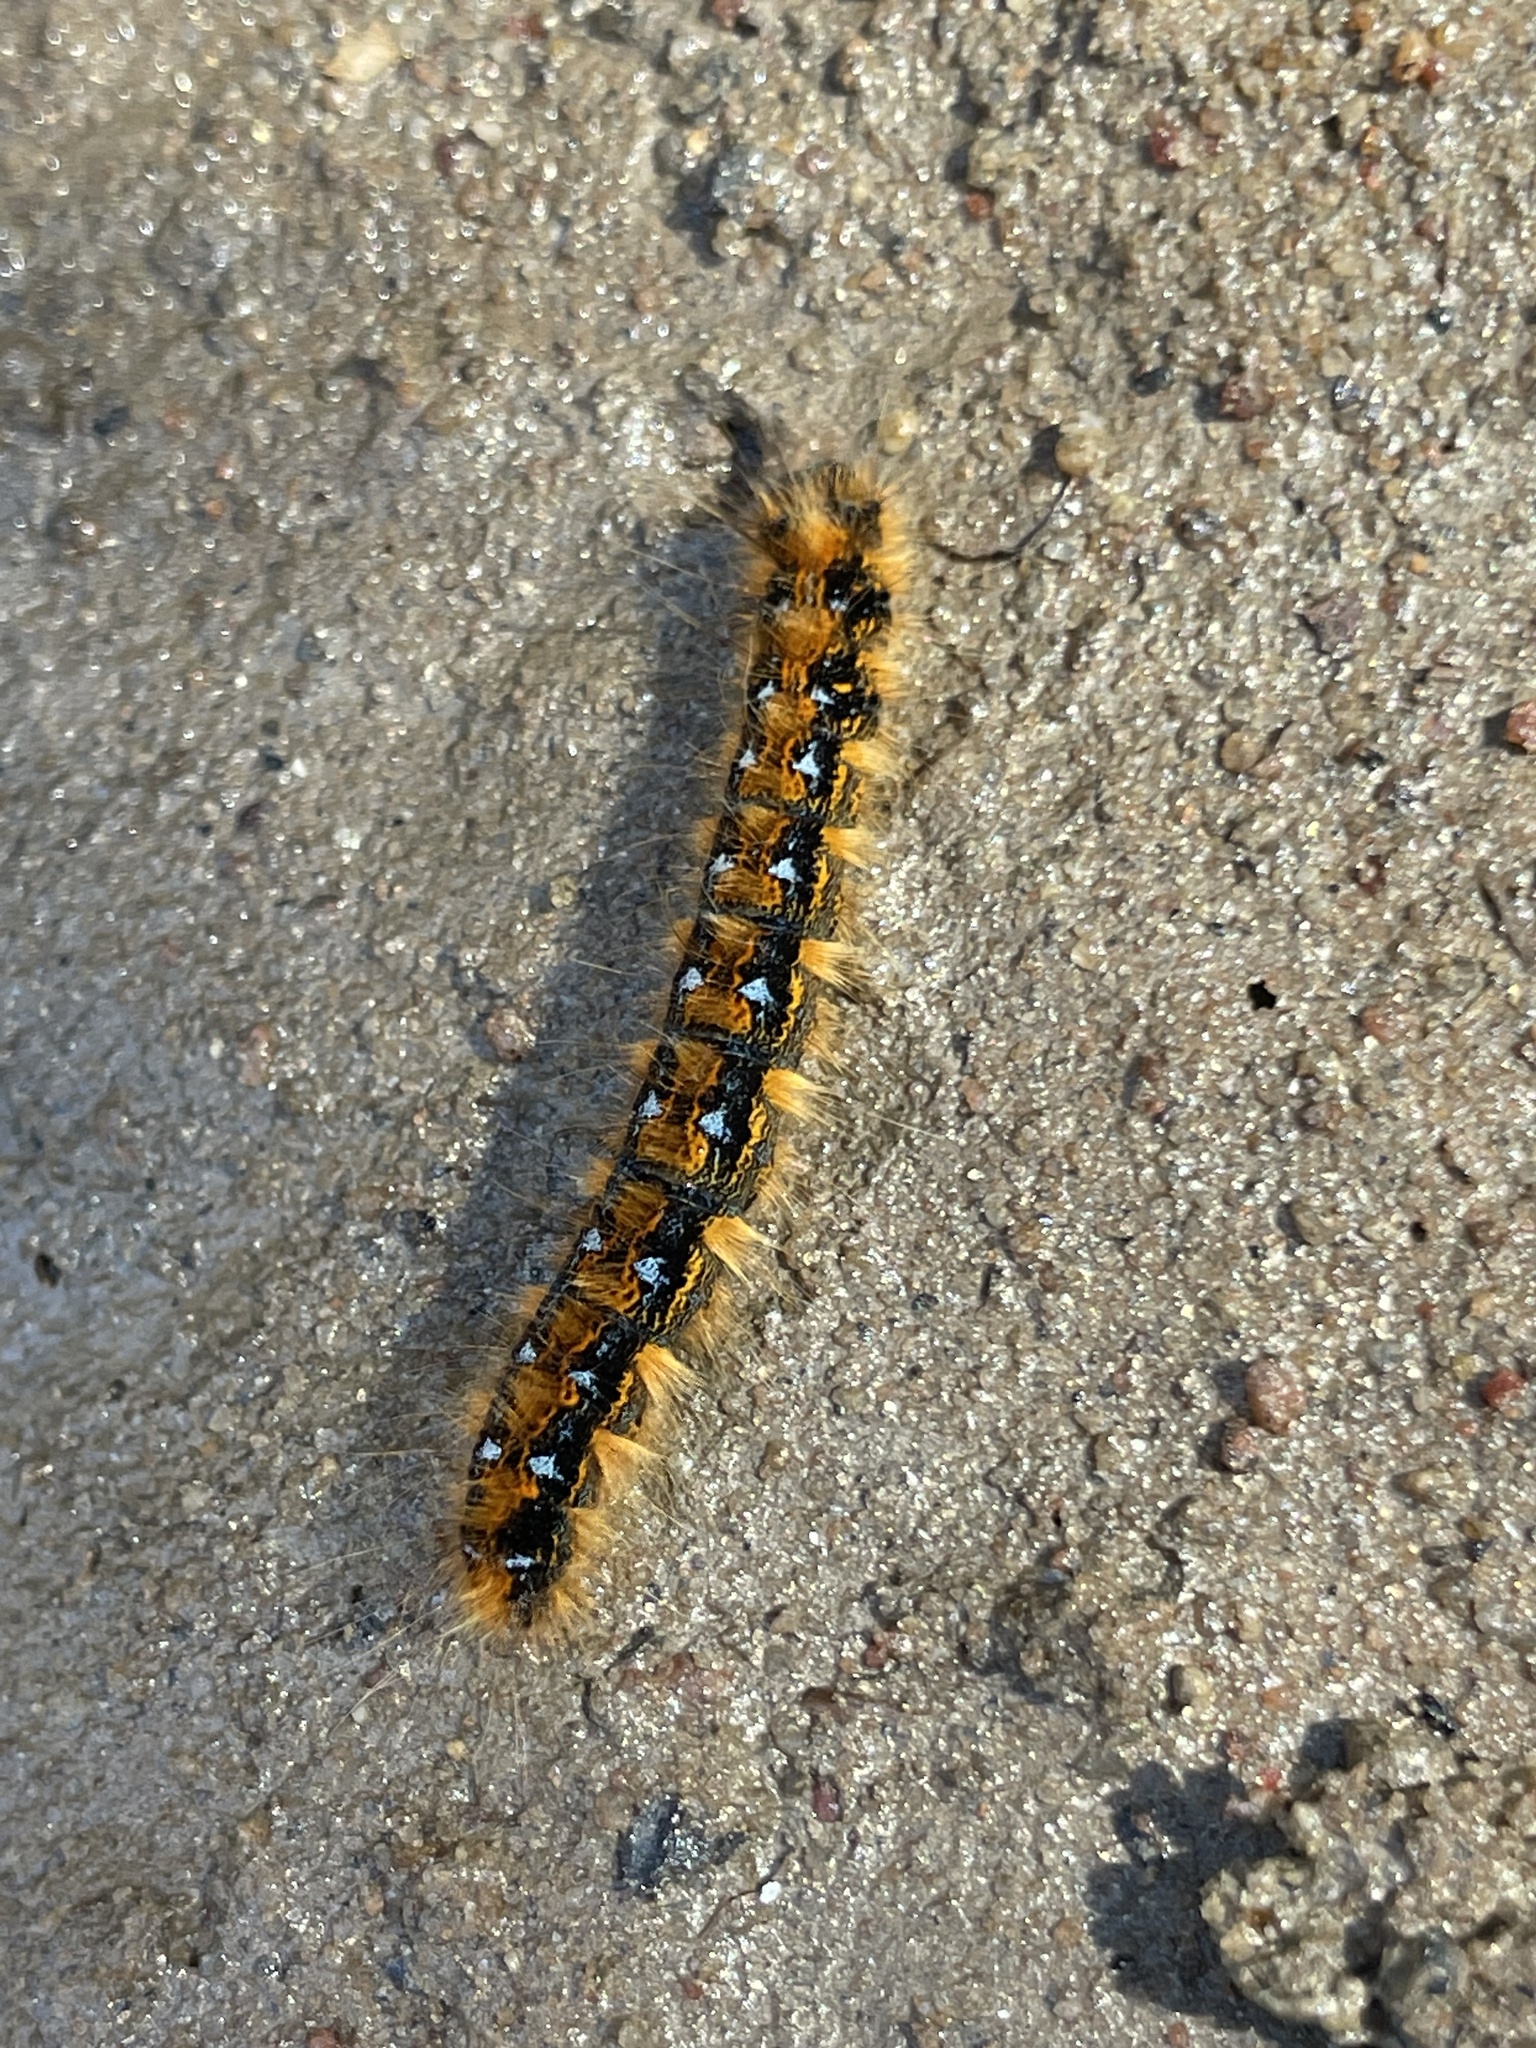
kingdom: Animalia
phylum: Arthropoda
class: Insecta
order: Lepidoptera
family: Lasiocampidae
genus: Malacosoma
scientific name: Malacosoma constricta
